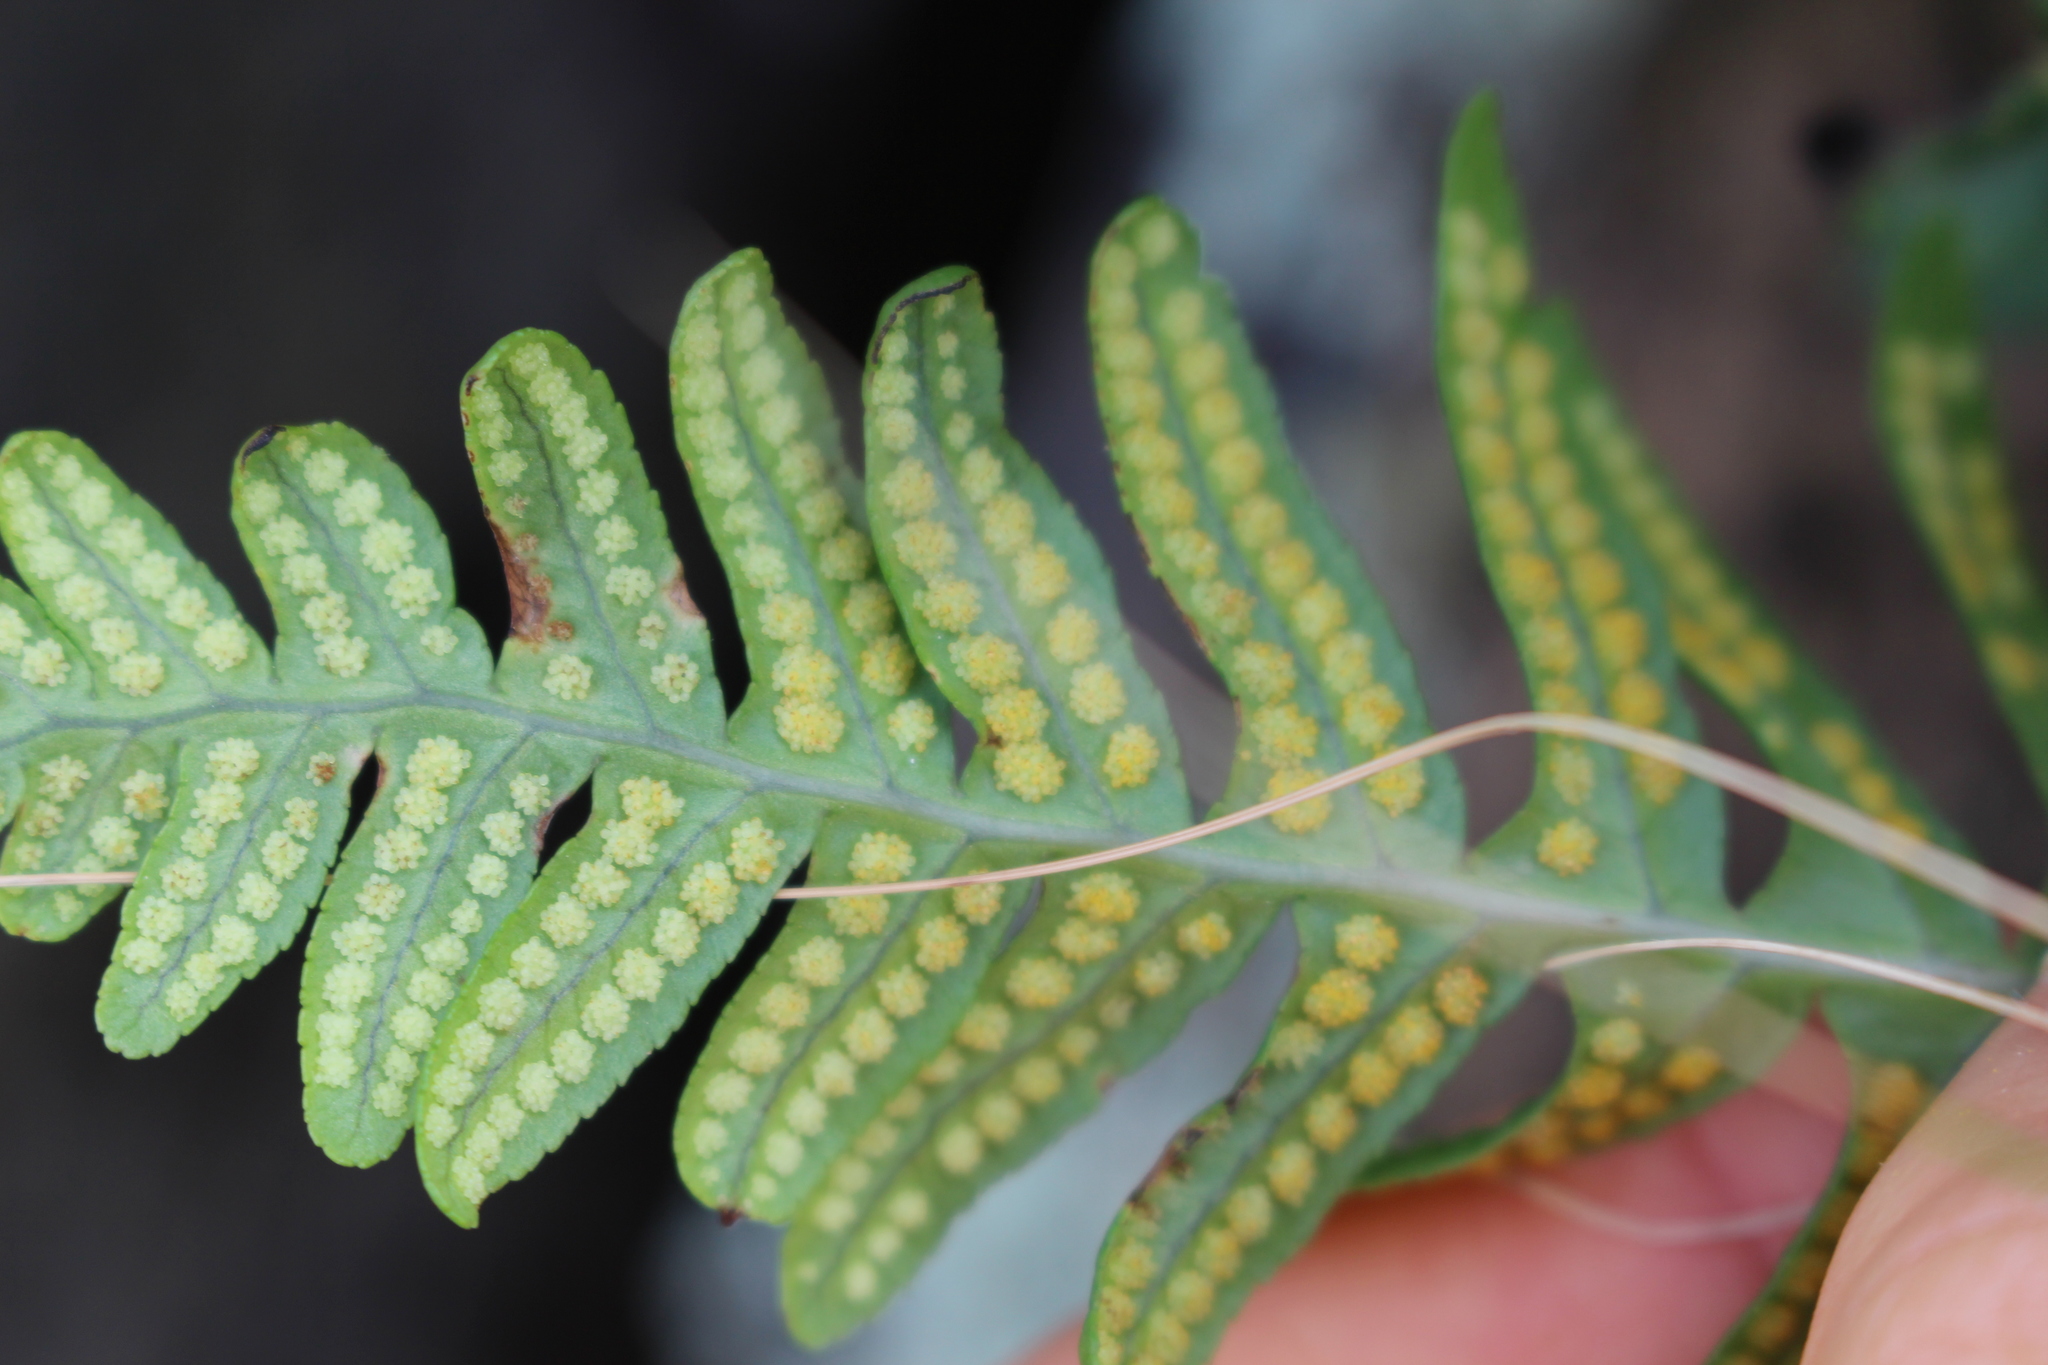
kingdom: Plantae
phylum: Tracheophyta
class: Polypodiopsida
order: Polypodiales
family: Polypodiaceae
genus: Polypodium
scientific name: Polypodium vulgare
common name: Common polypody
